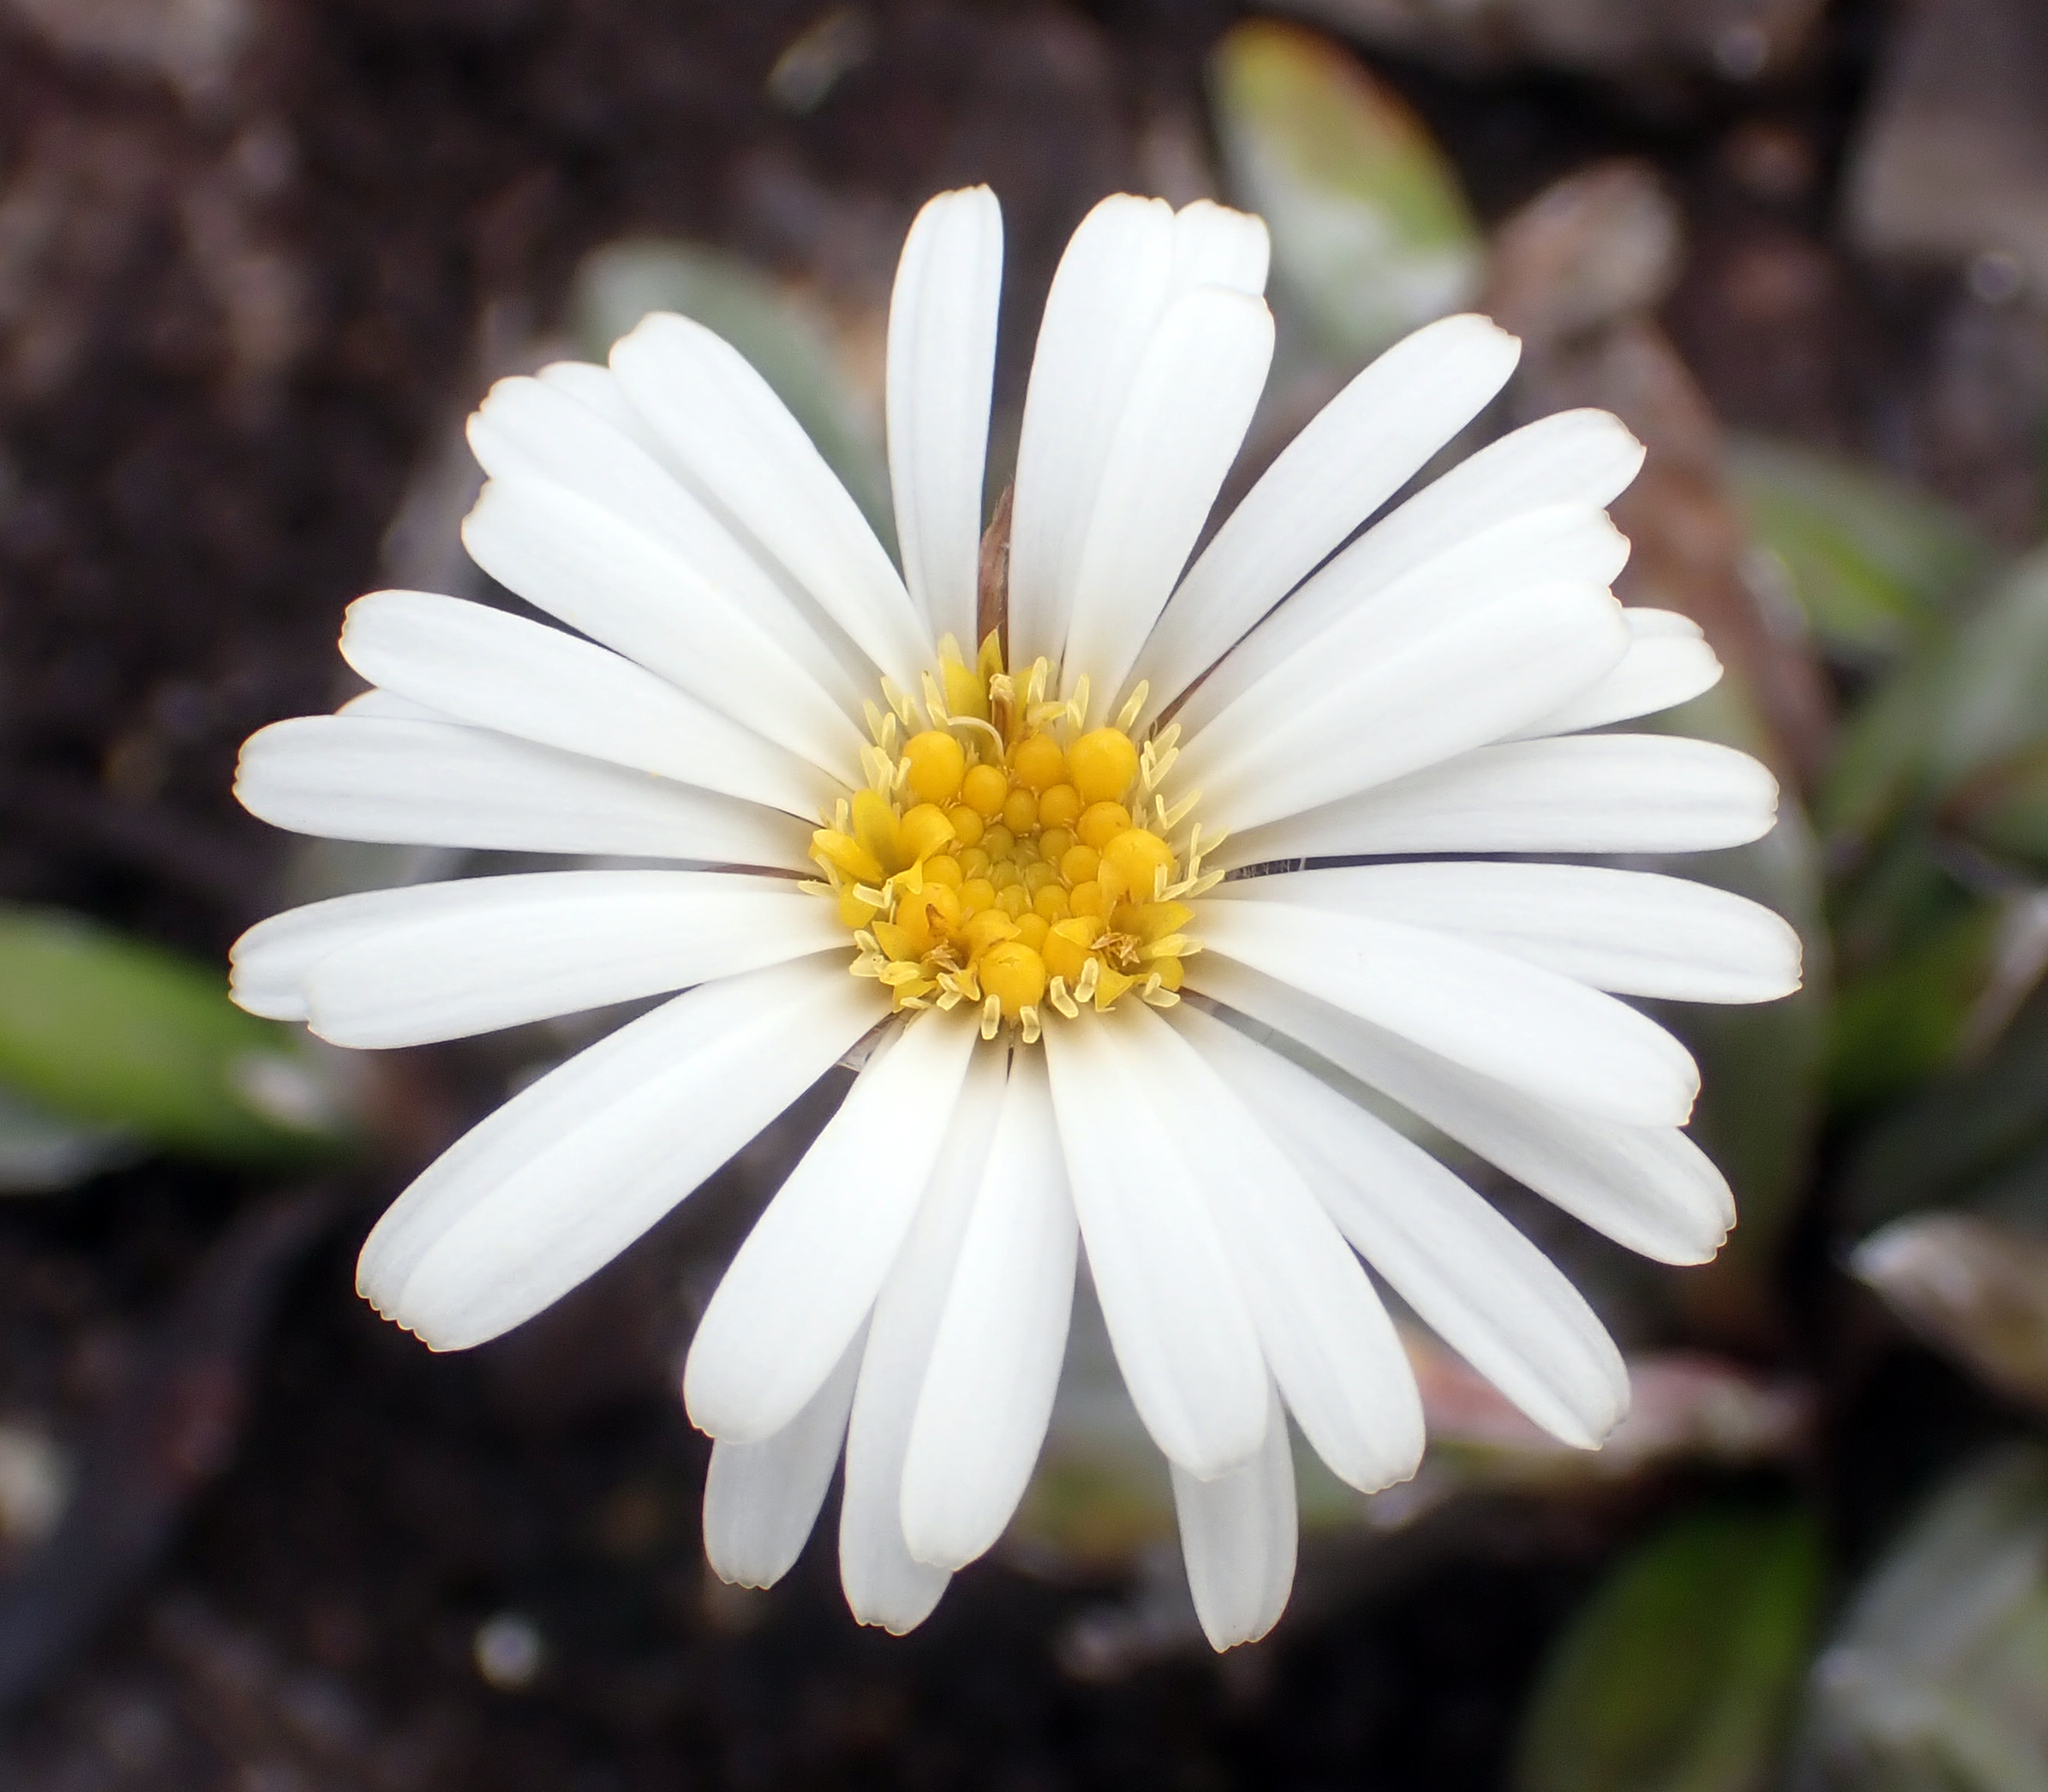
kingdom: Plantae
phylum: Tracheophyta
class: Magnoliopsida
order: Asterales
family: Asteraceae
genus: Celmisia
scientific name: Celmisia dubia
